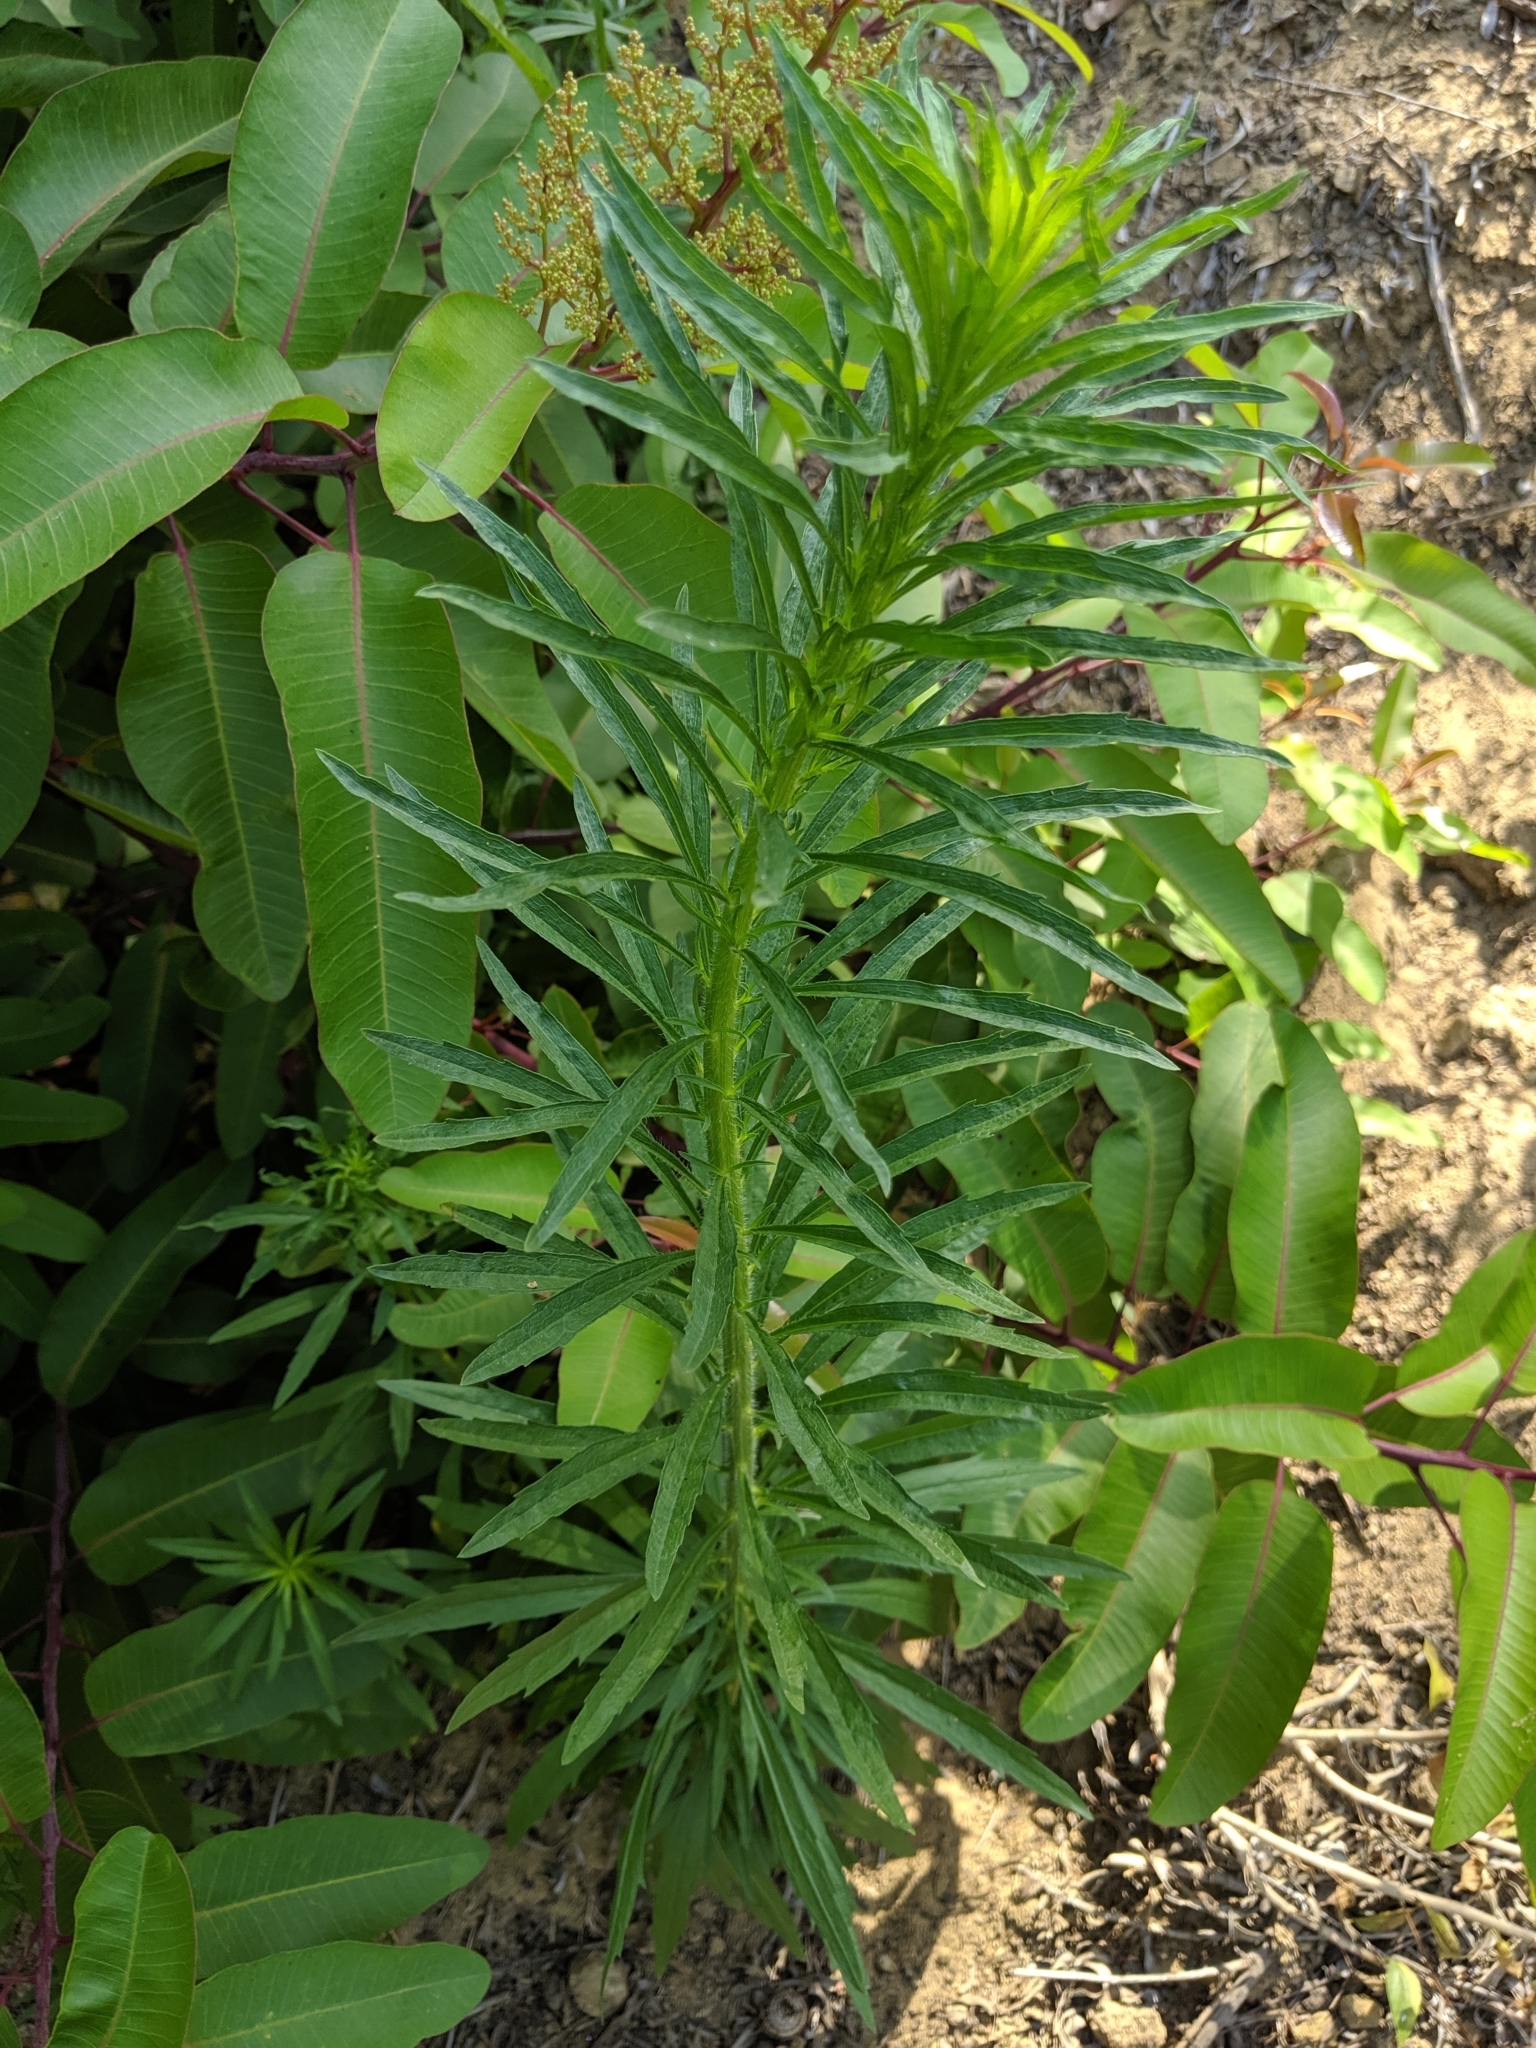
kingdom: Plantae
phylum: Tracheophyta
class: Magnoliopsida
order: Asterales
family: Asteraceae
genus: Erigeron
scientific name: Erigeron canadensis
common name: Canadian fleabane
